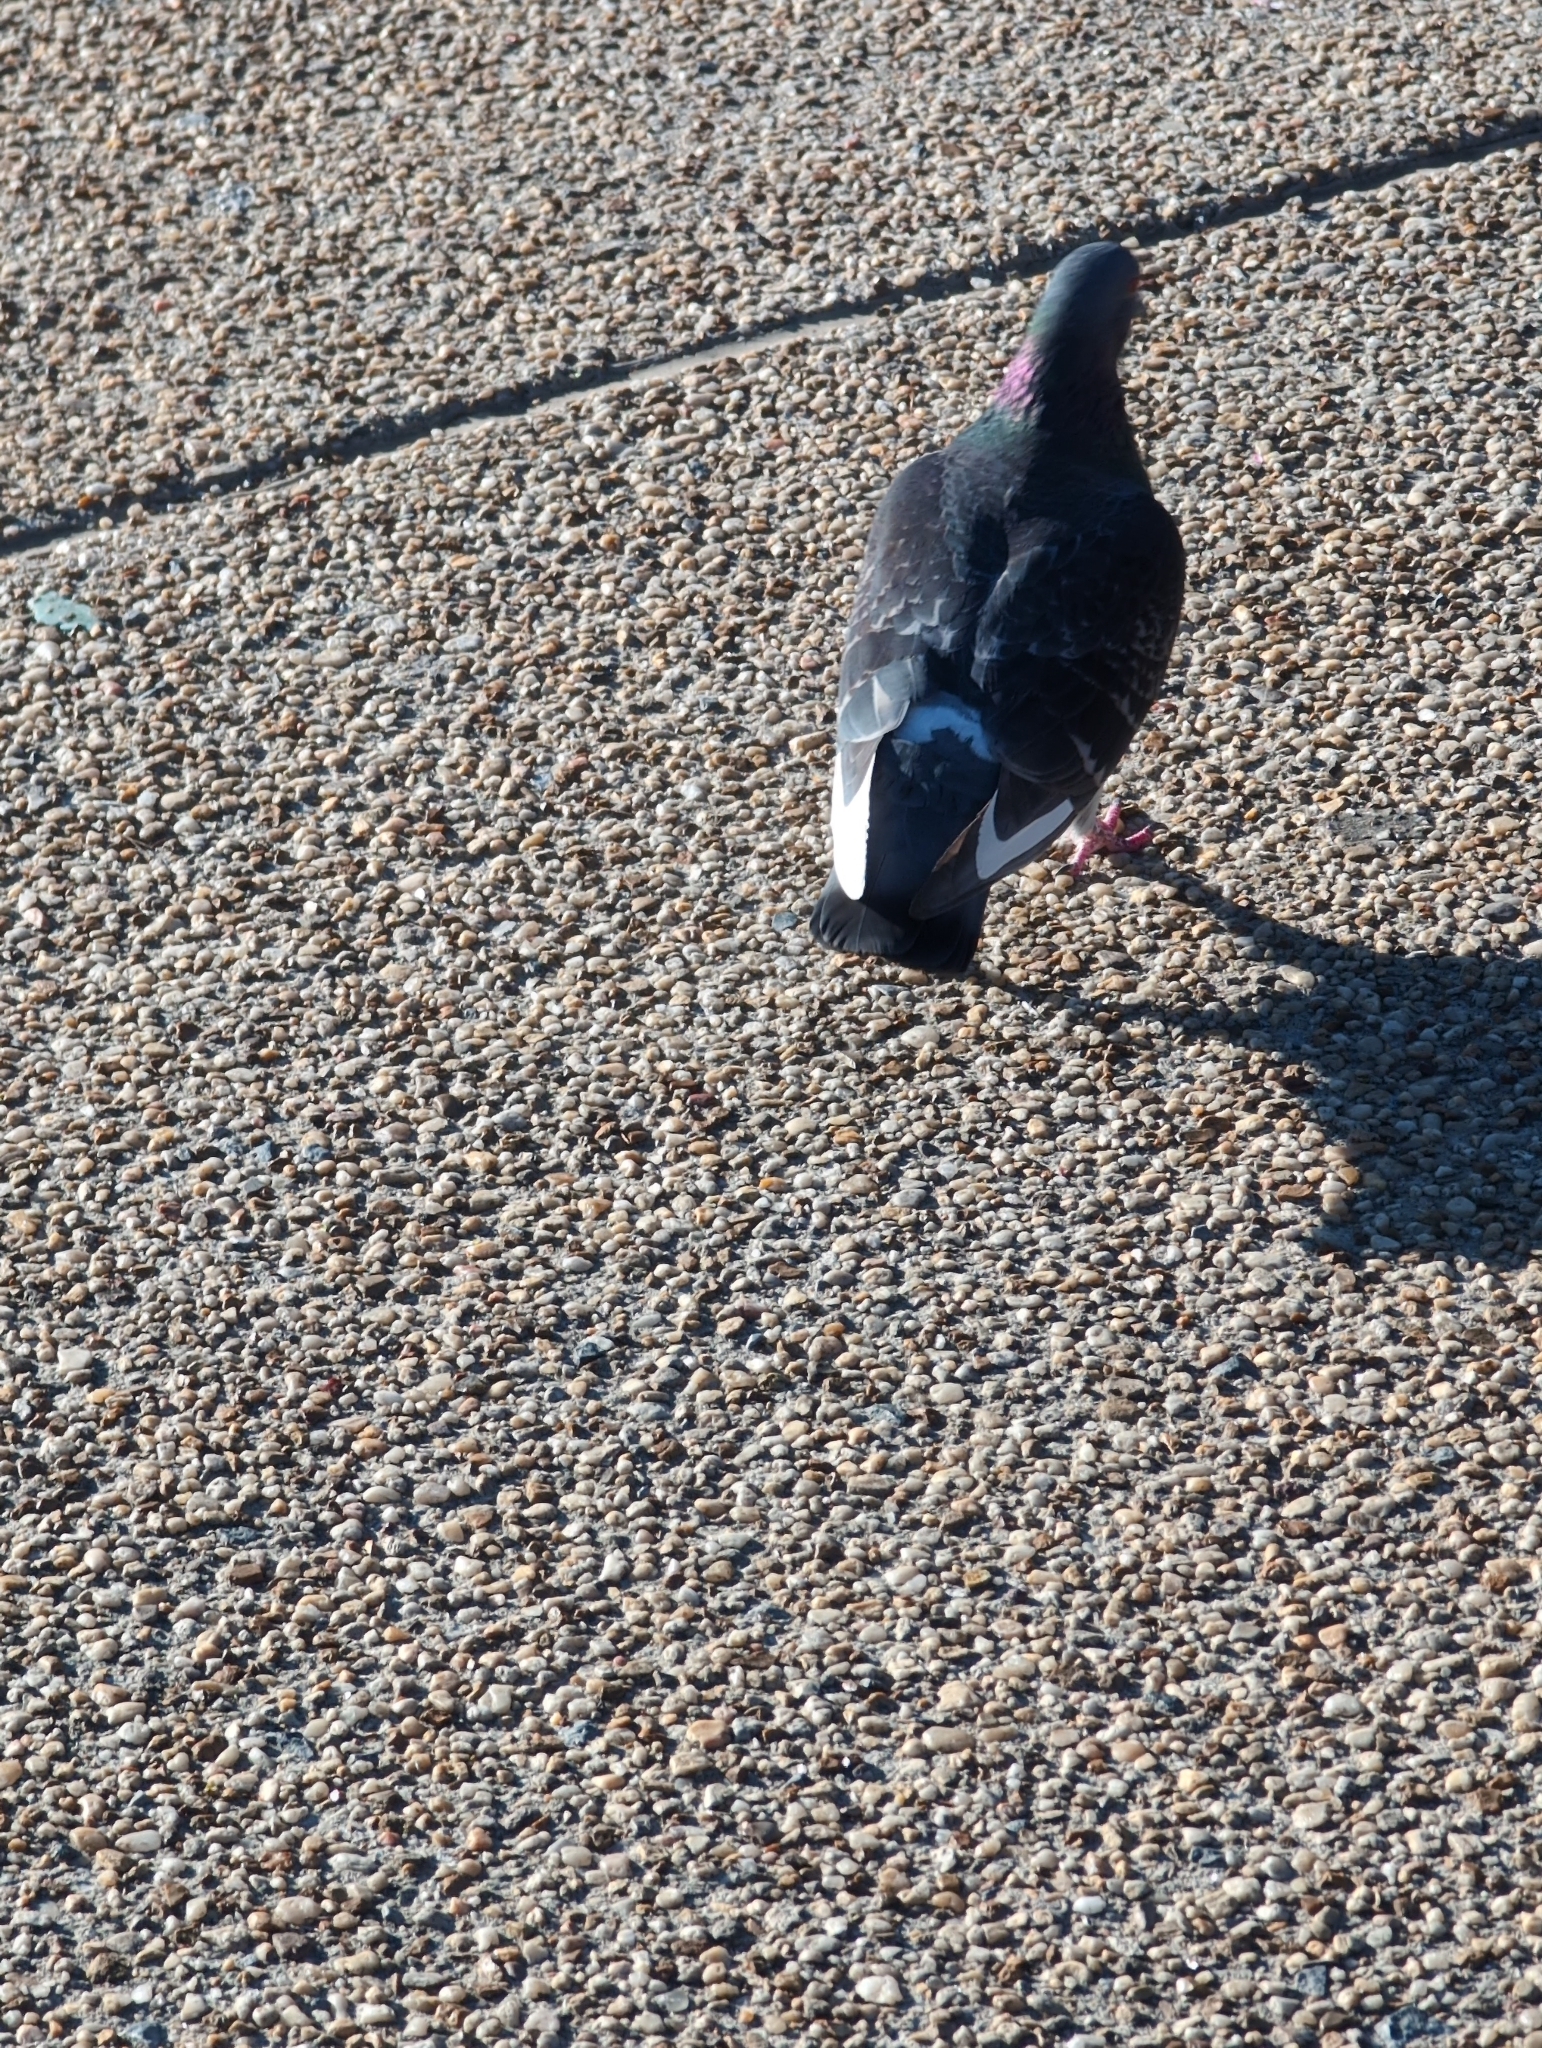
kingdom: Animalia
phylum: Chordata
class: Aves
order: Columbiformes
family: Columbidae
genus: Columba
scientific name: Columba livia
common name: Rock pigeon
